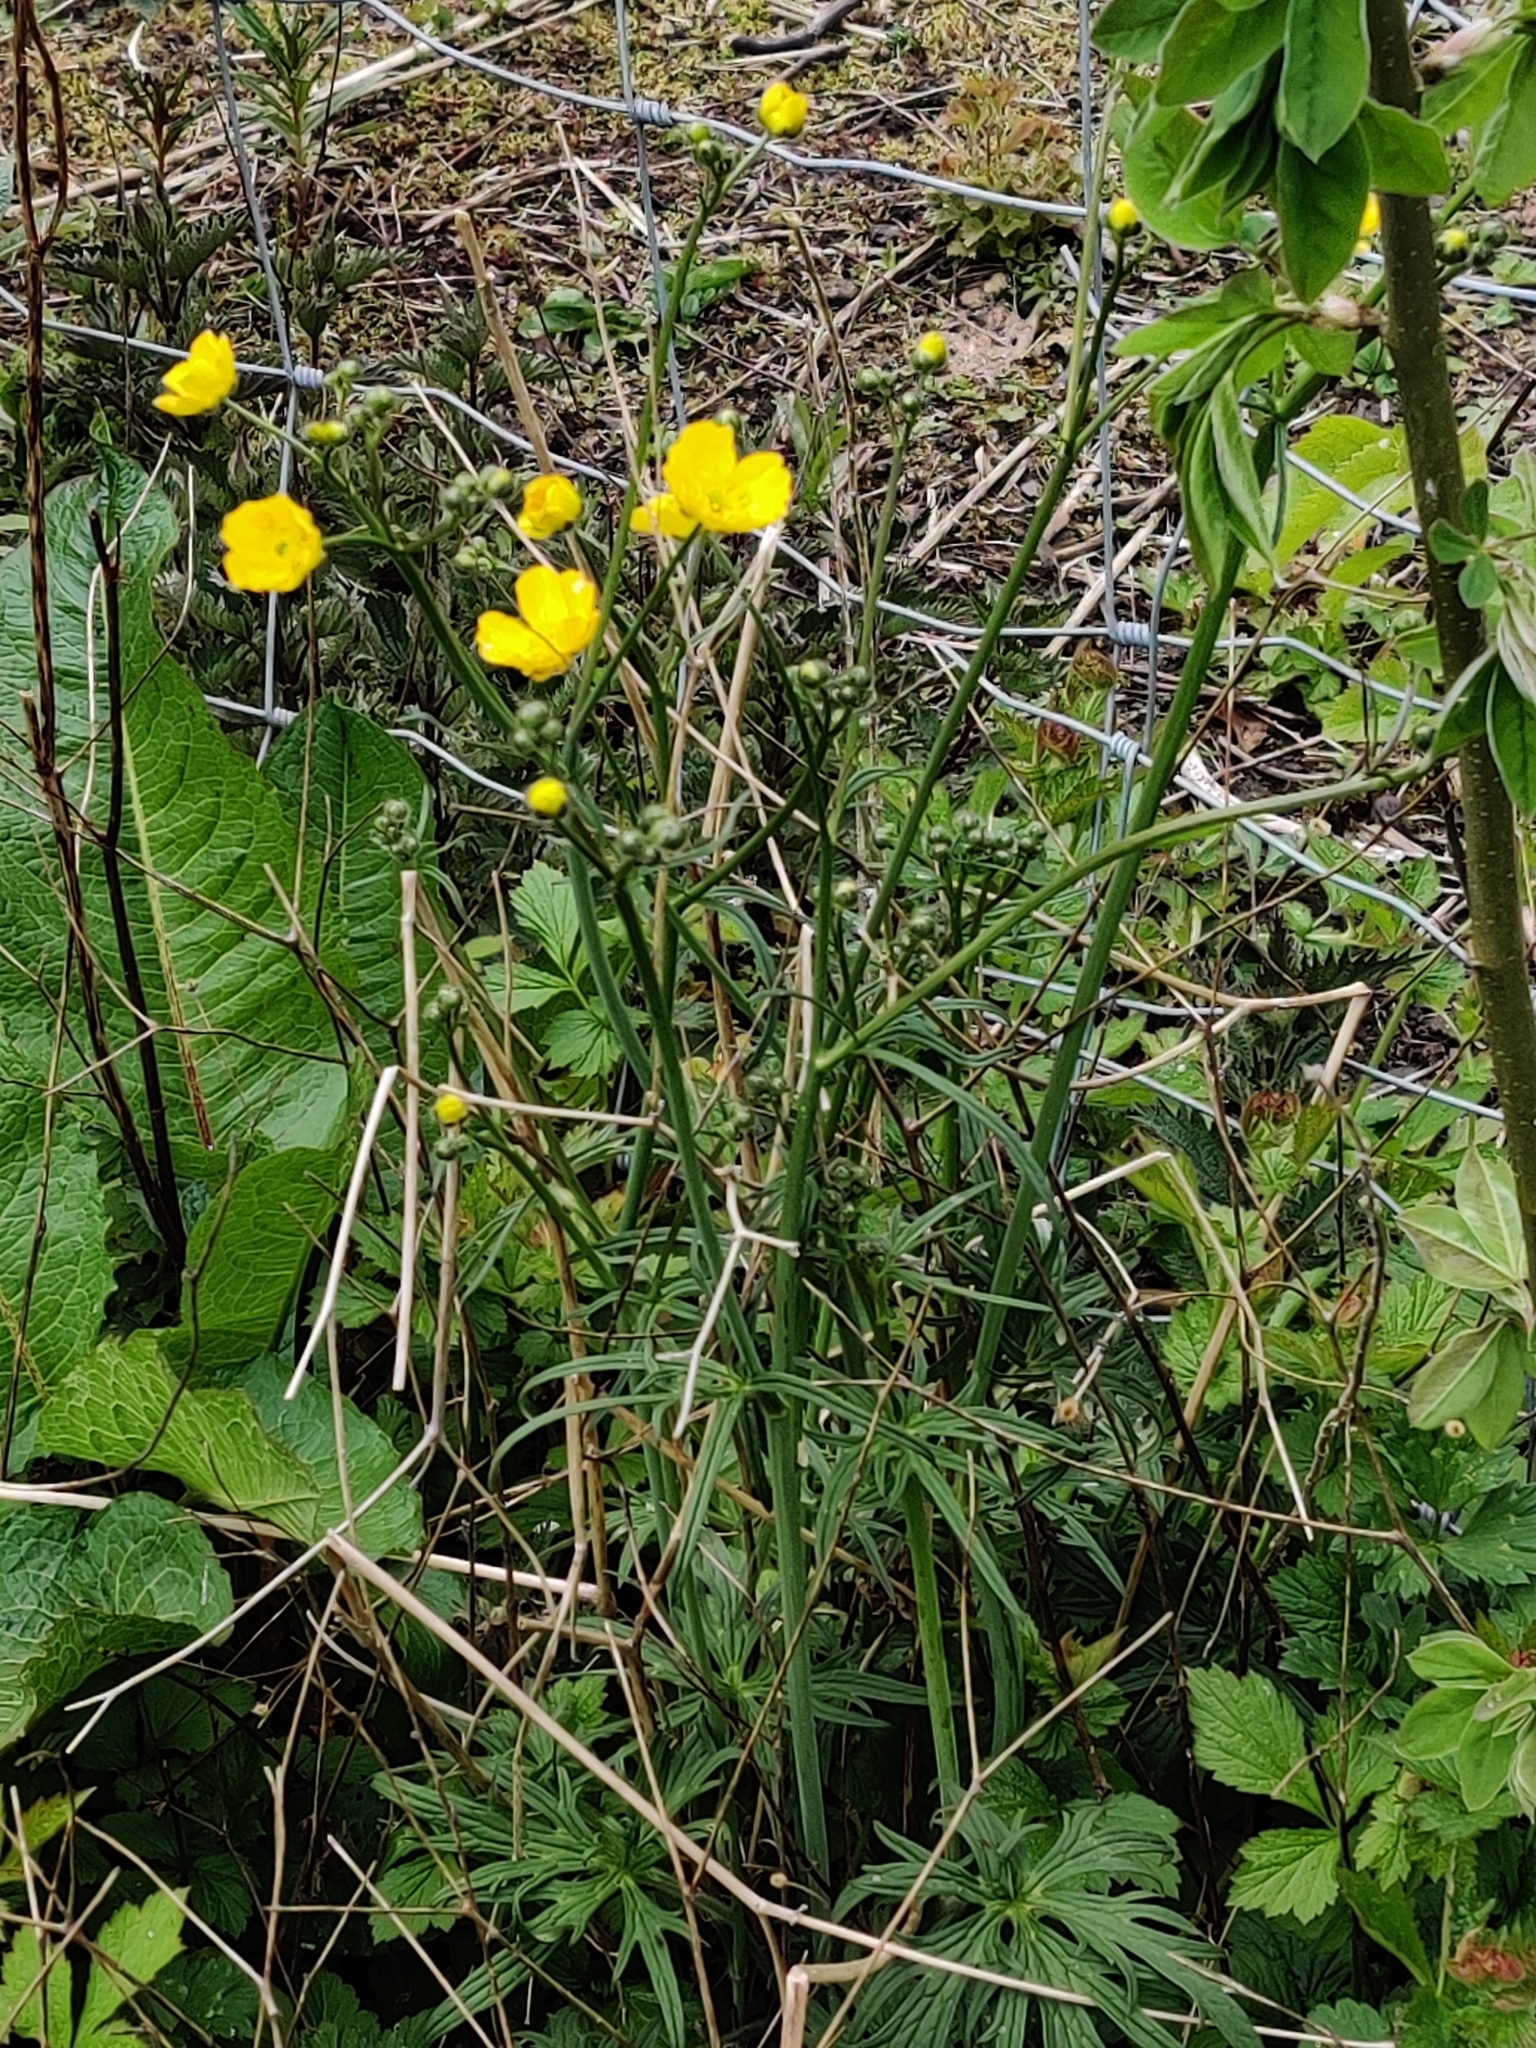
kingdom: Plantae
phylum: Tracheophyta
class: Magnoliopsida
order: Ranunculales
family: Ranunculaceae
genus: Ranunculus
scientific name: Ranunculus acris
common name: Meadow buttercup
